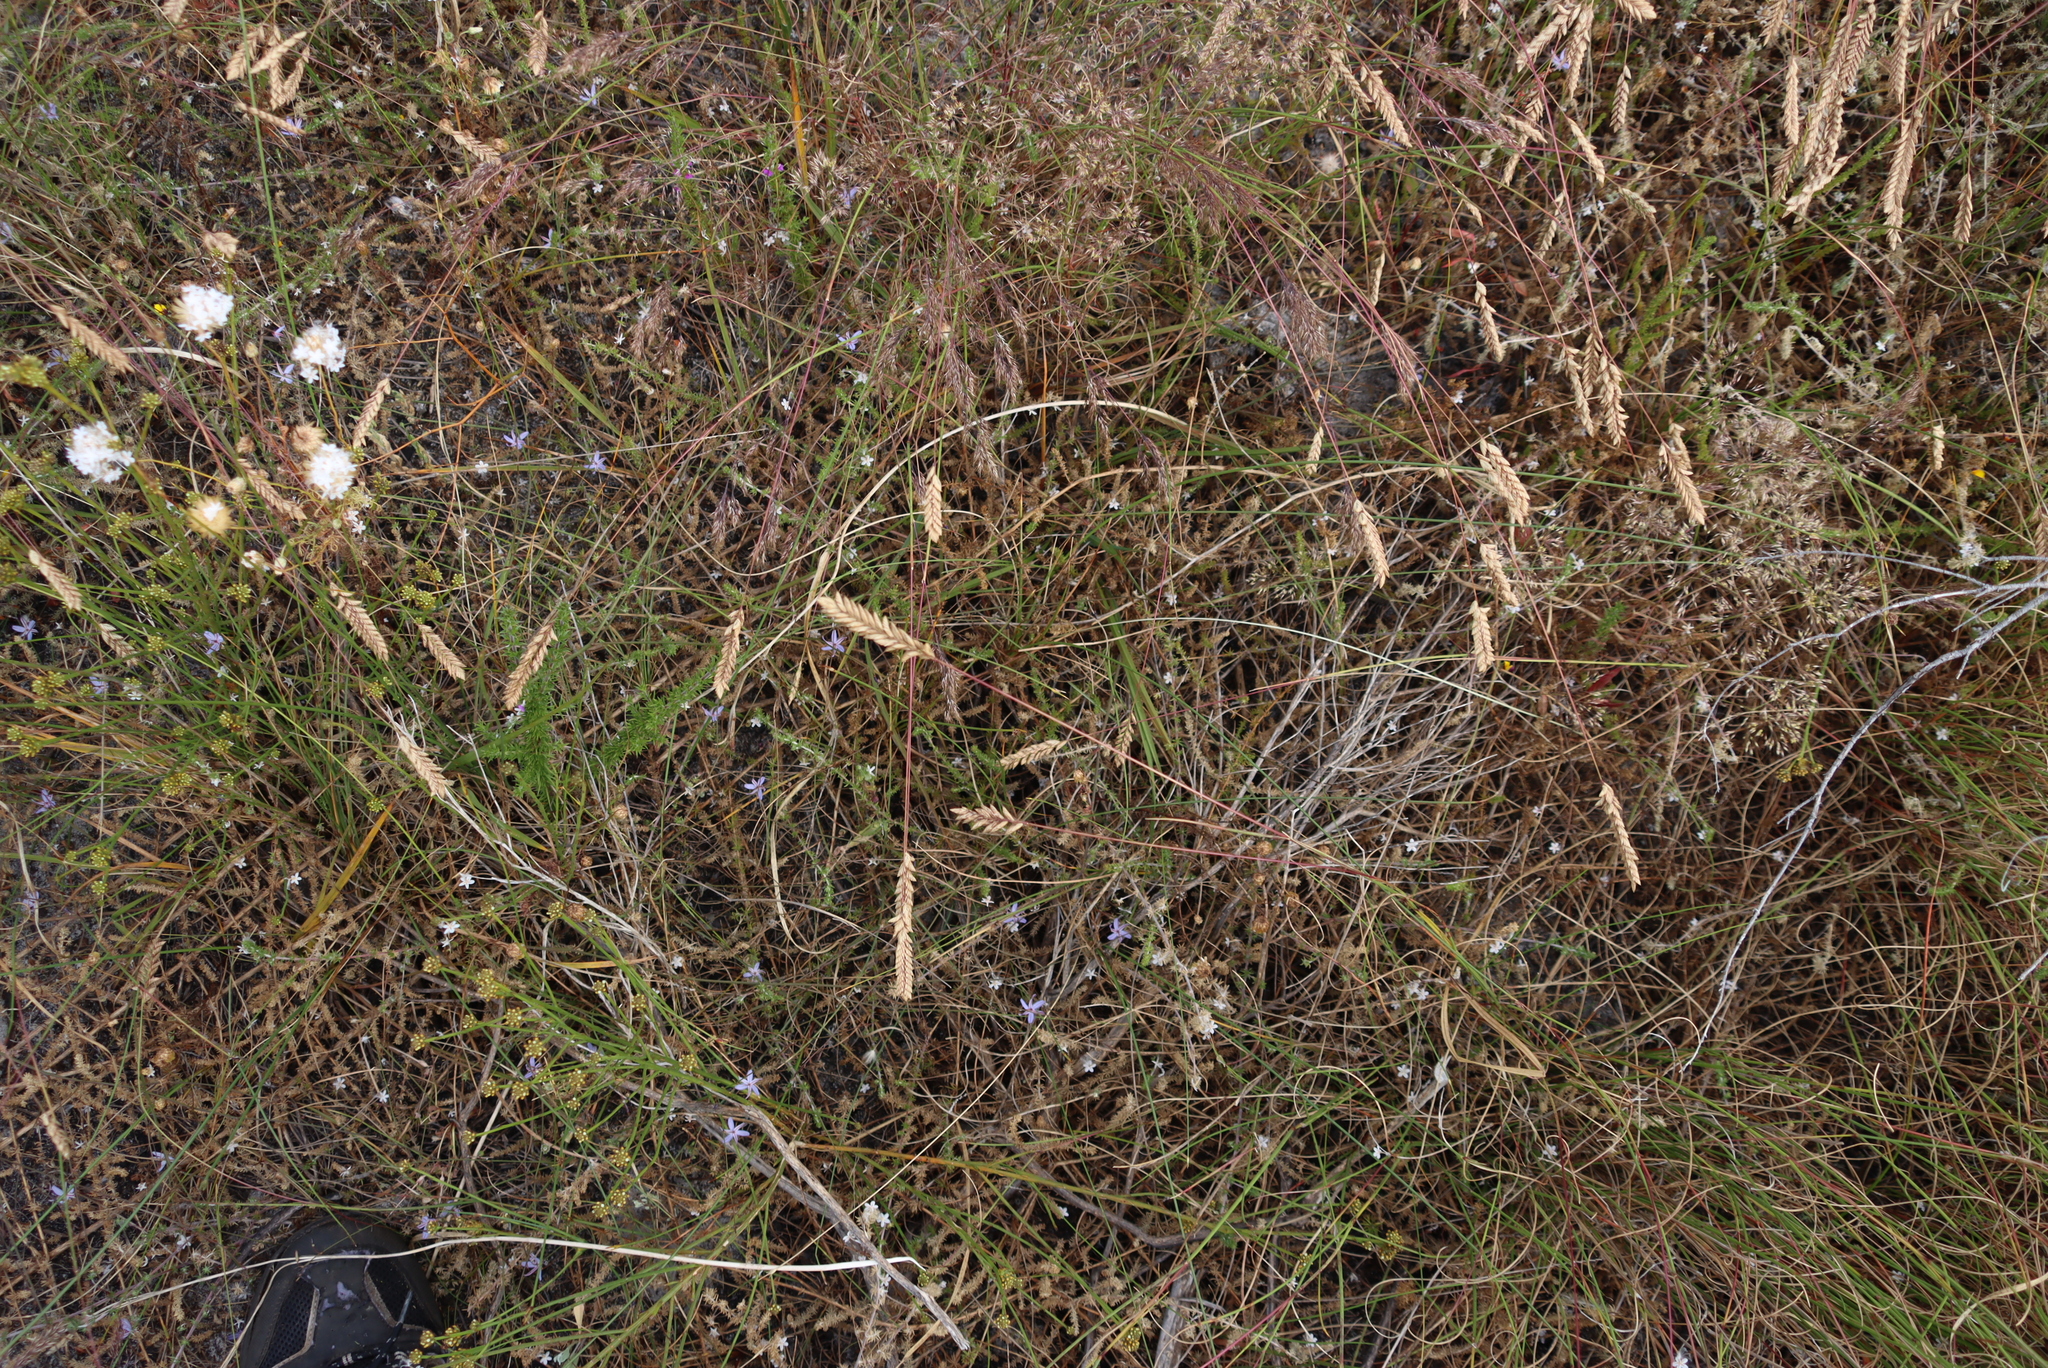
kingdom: Plantae
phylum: Tracheophyta
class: Liliopsida
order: Poales
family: Poaceae
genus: Tribolium
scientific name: Tribolium uniolae
